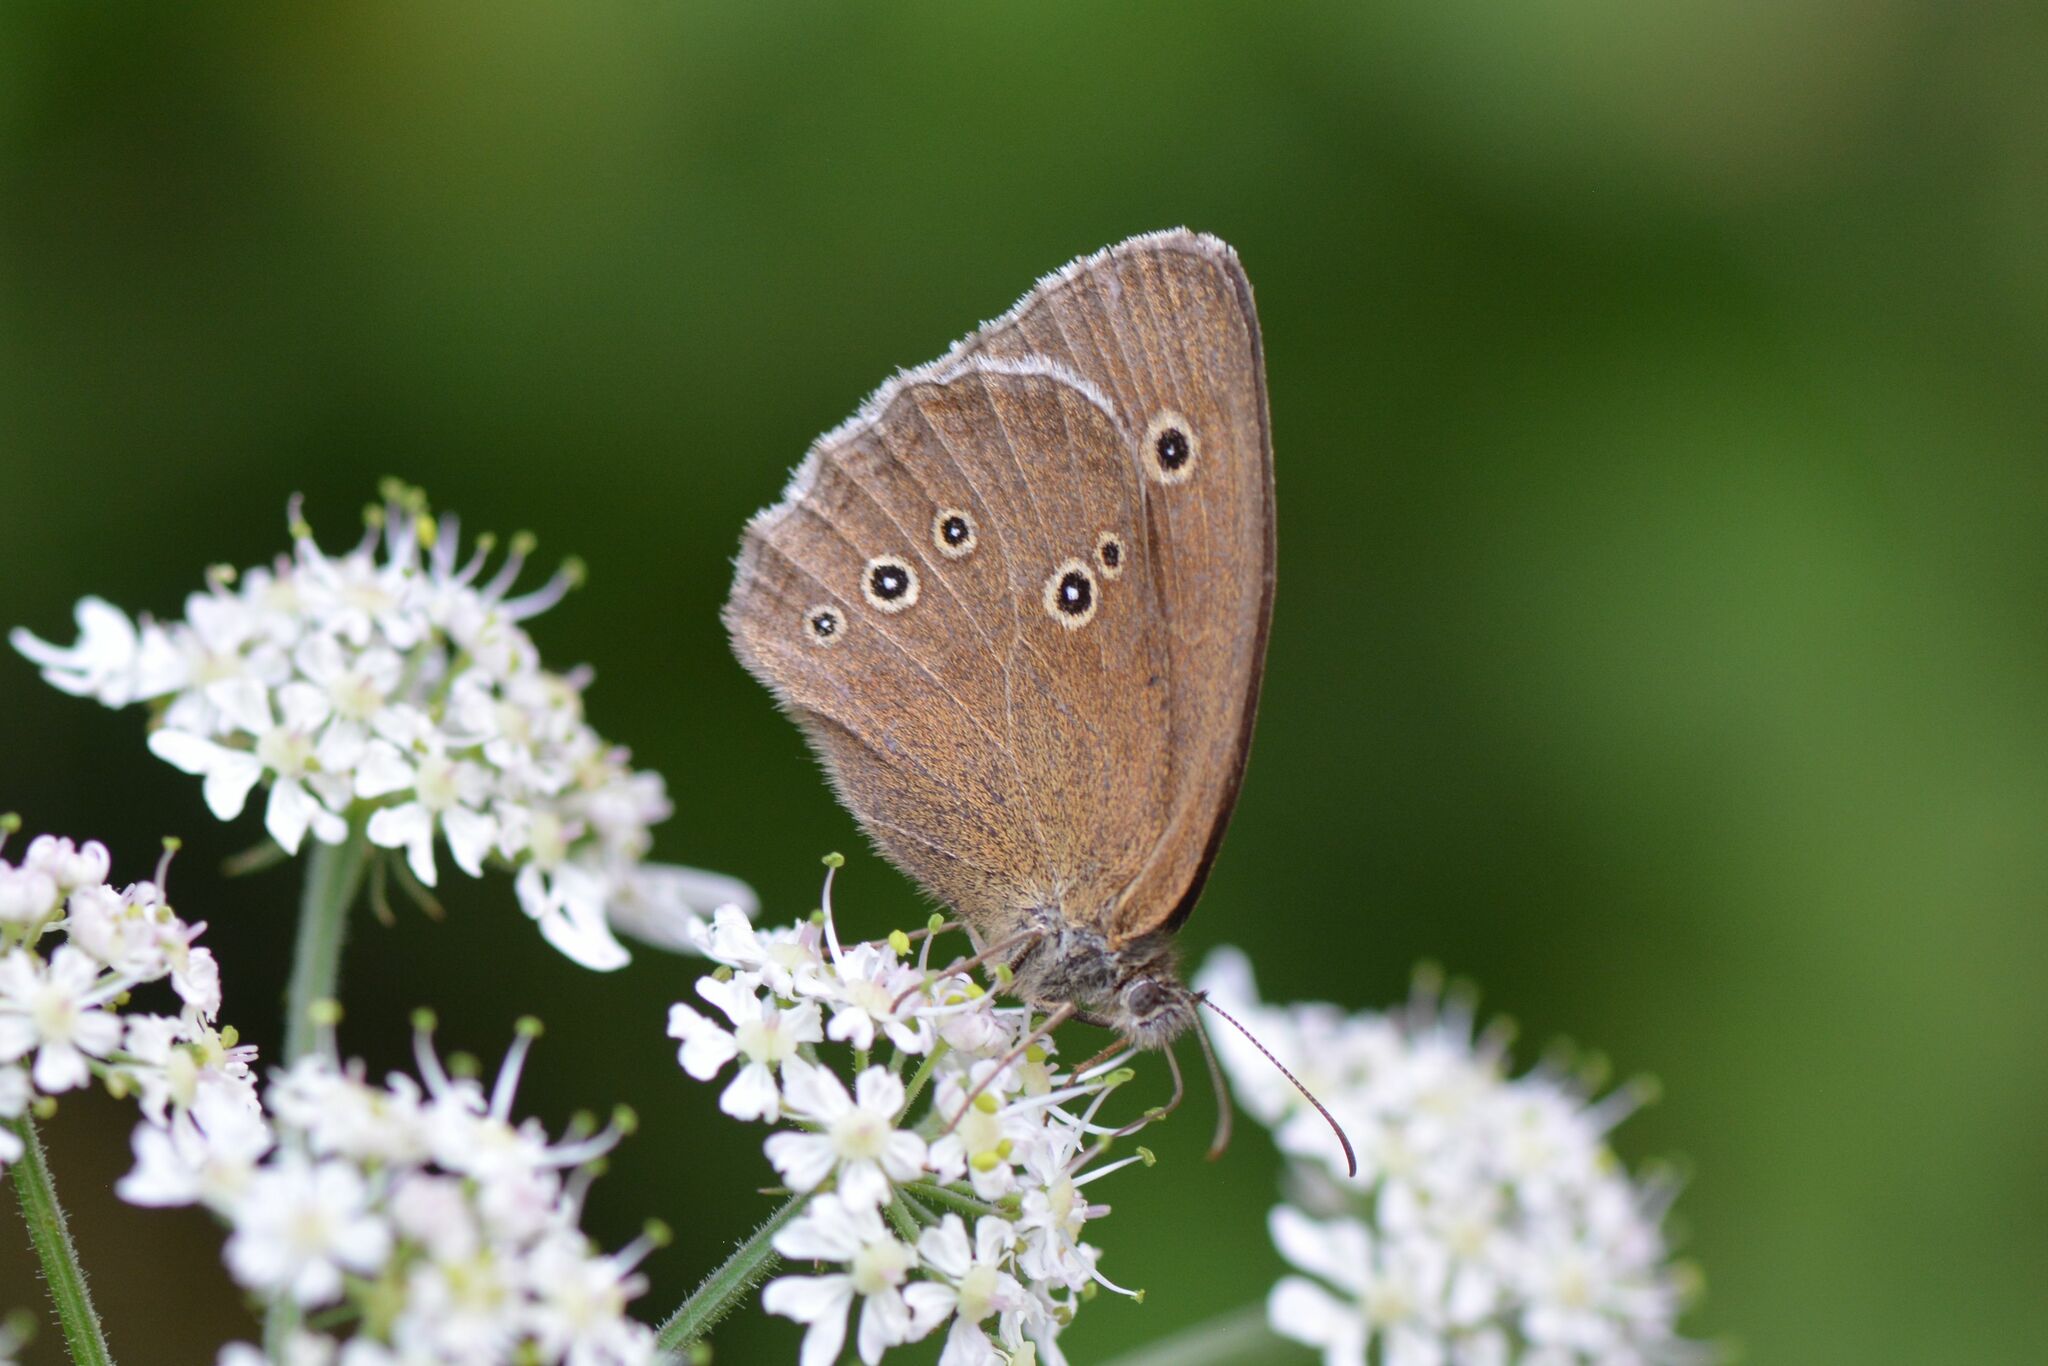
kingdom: Animalia
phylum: Arthropoda
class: Insecta
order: Lepidoptera
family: Nymphalidae
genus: Aphantopus
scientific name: Aphantopus hyperantus
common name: Ringlet
